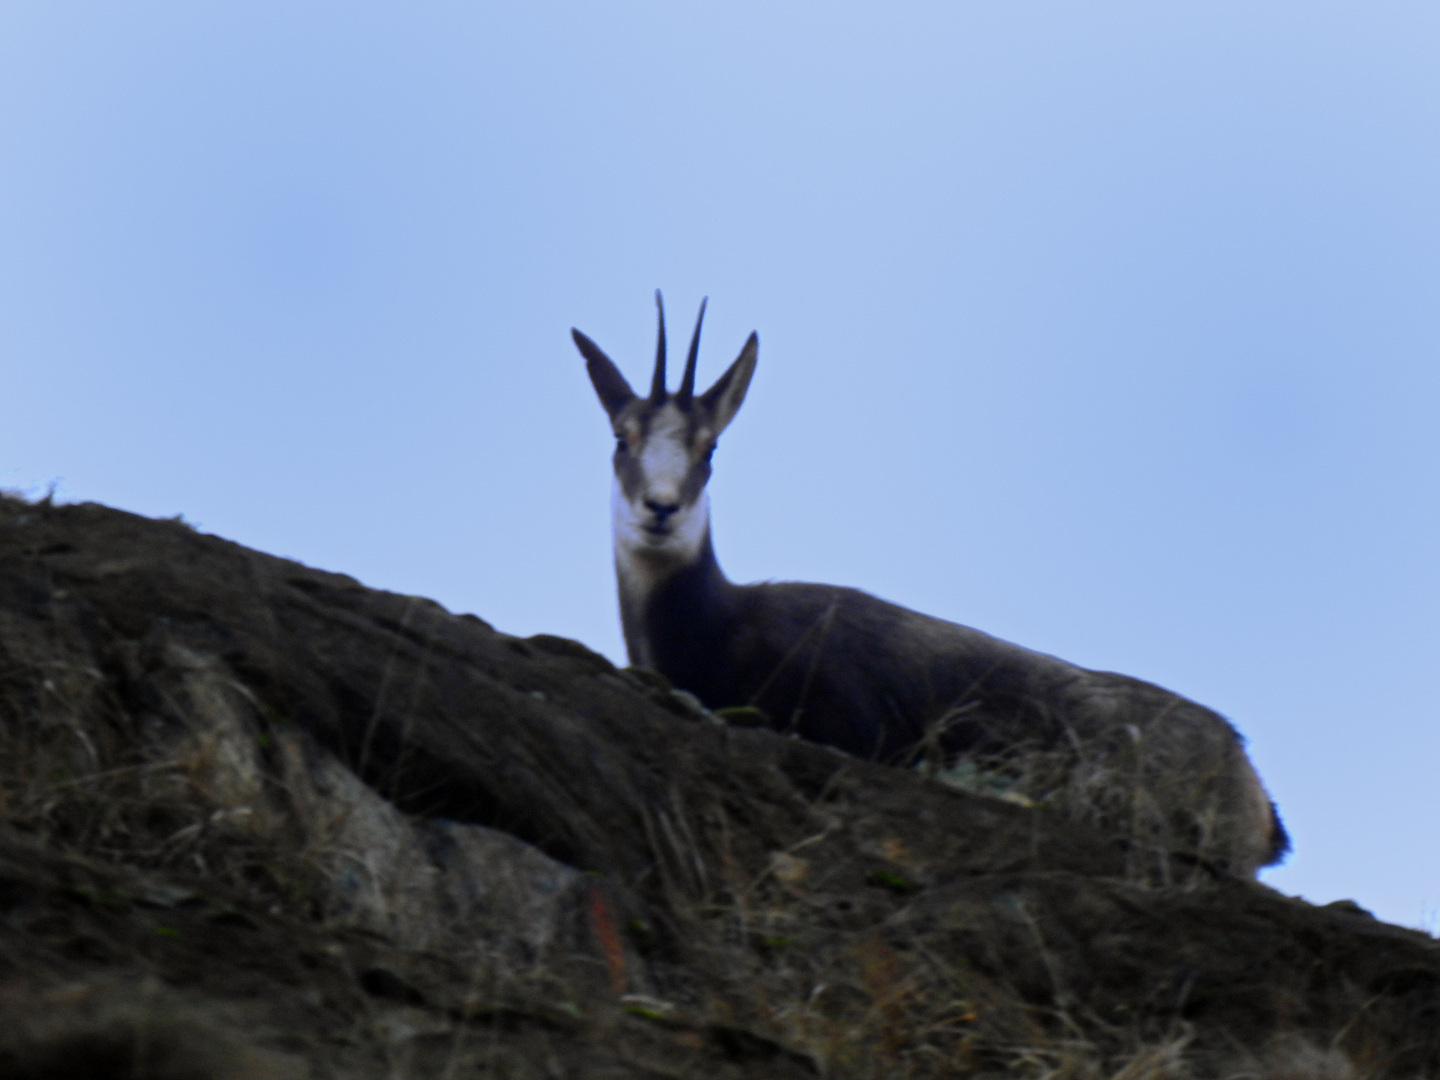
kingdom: Animalia
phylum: Chordata
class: Mammalia
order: Artiodactyla
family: Bovidae
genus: Rupicapra
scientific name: Rupicapra rupicapra
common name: Chamois
